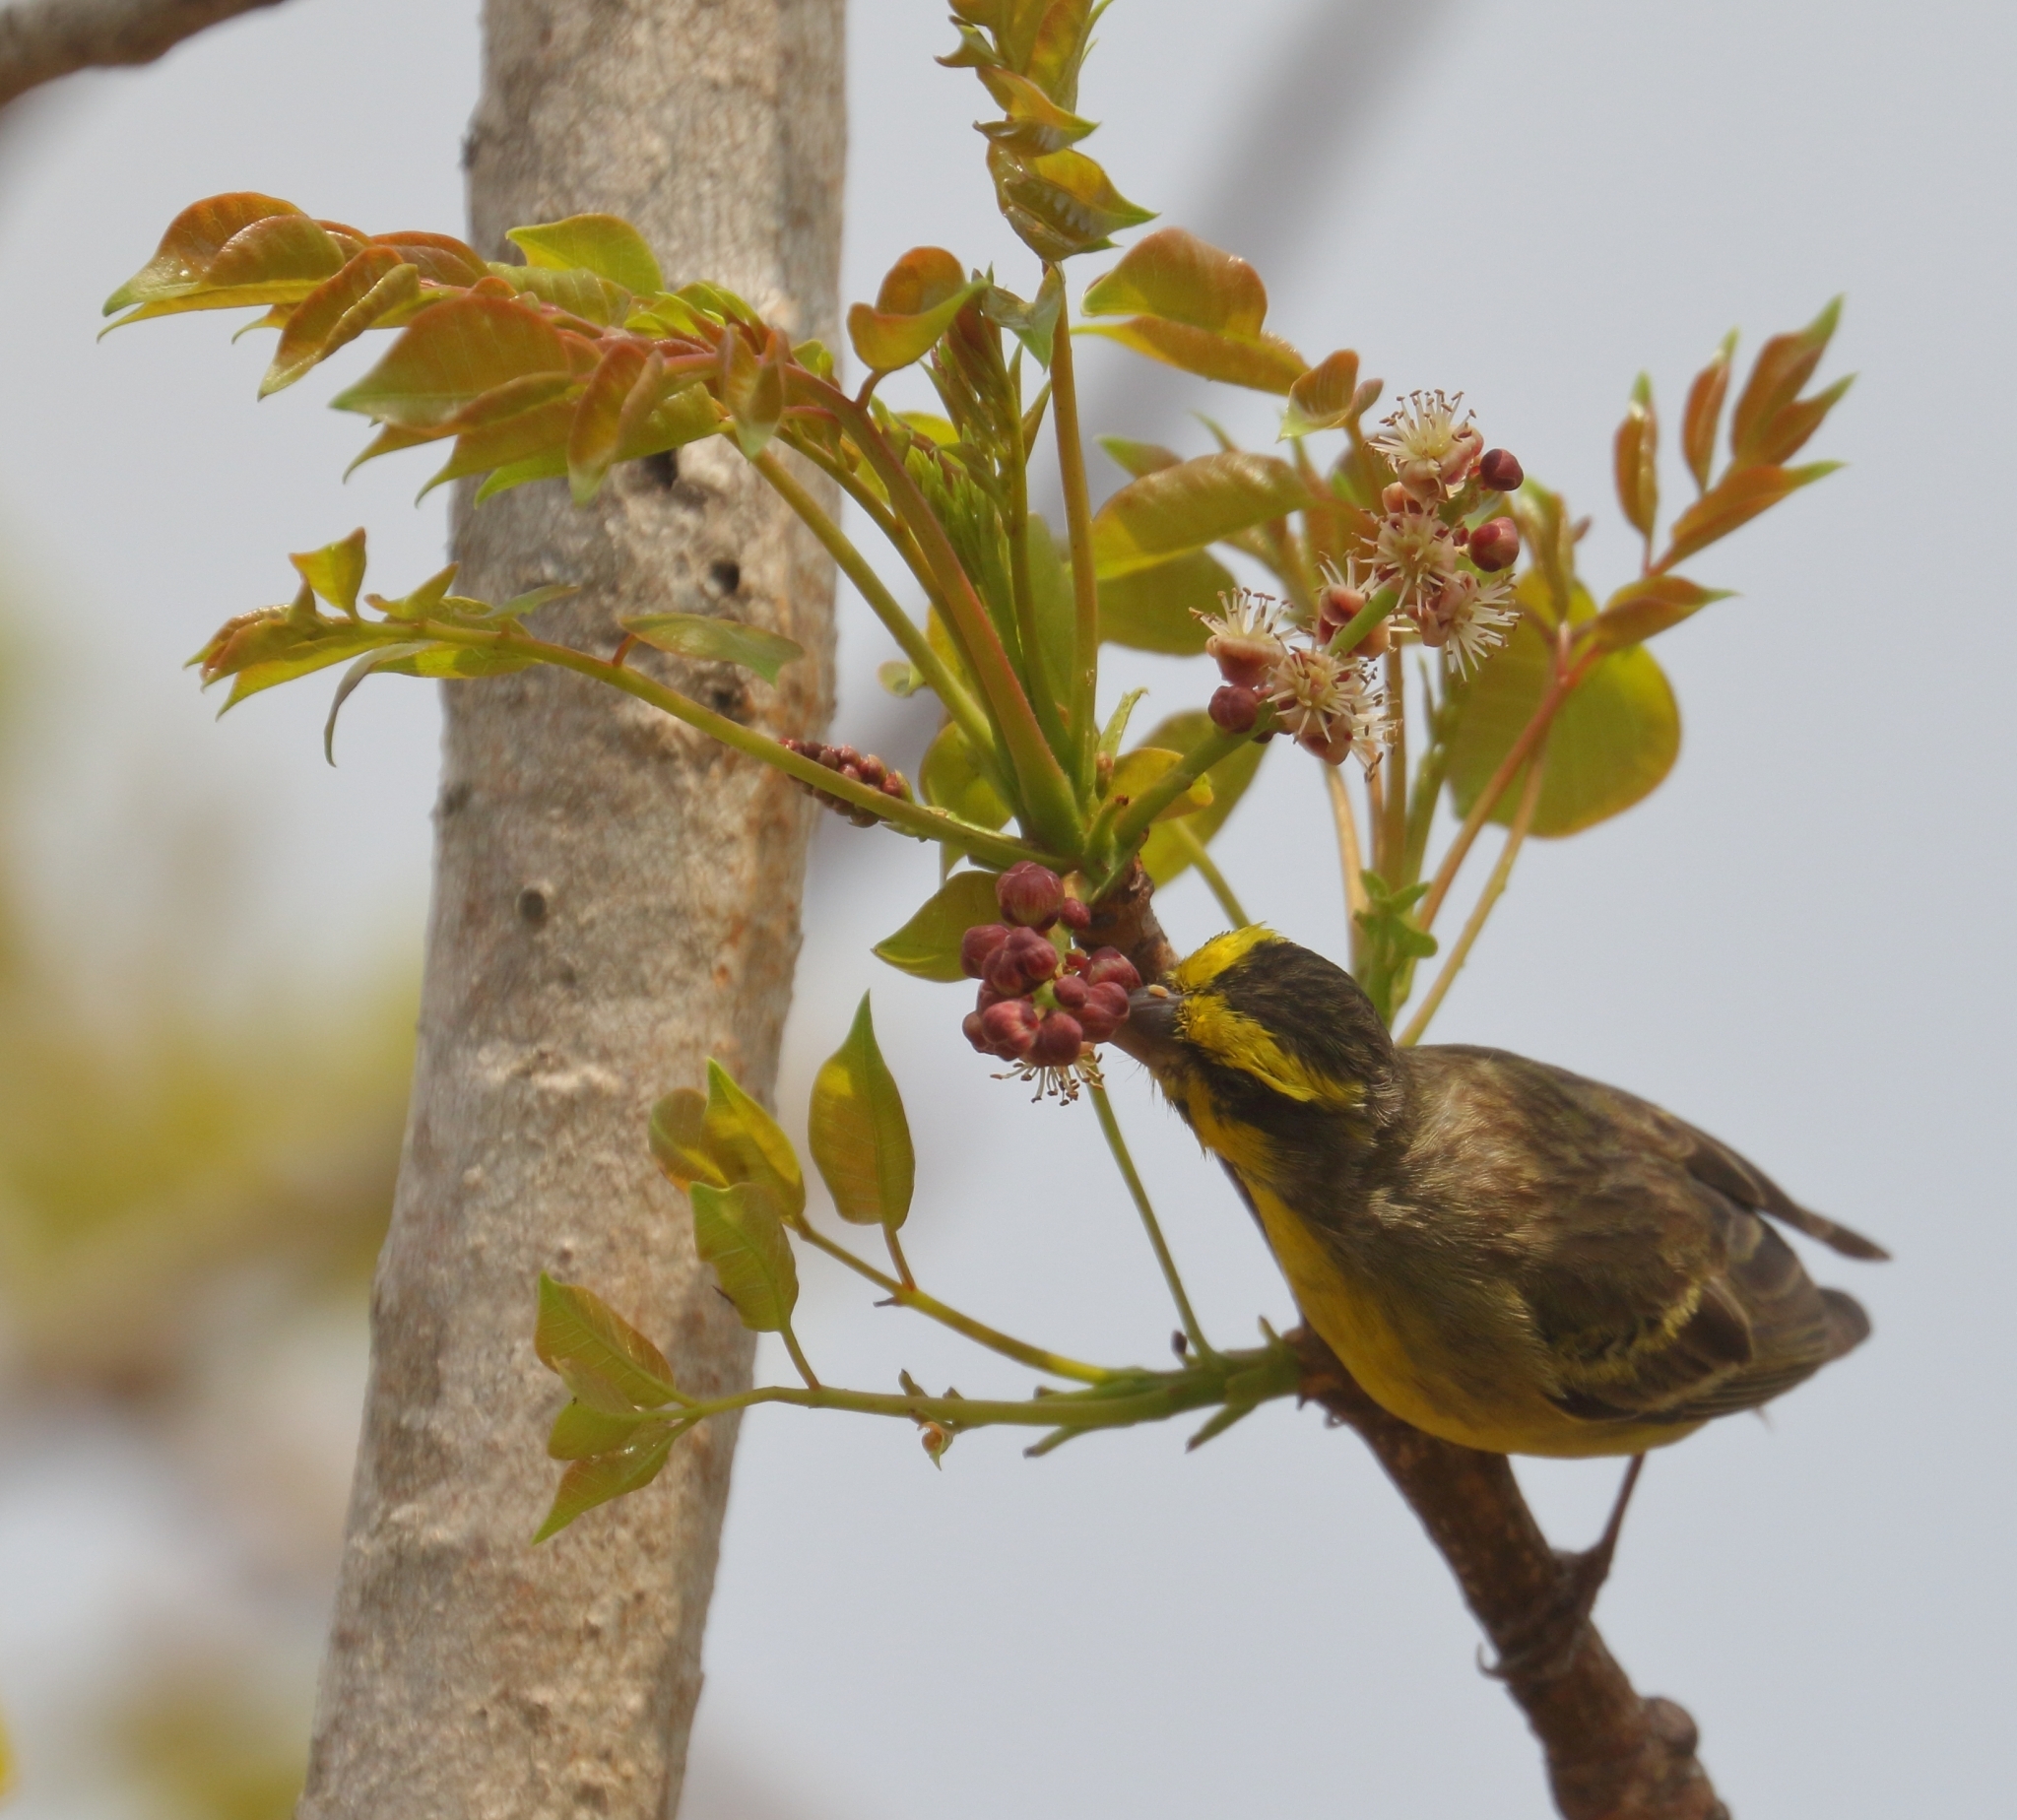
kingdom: Plantae
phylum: Tracheophyta
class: Magnoliopsida
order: Sapindales
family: Anacardiaceae
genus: Sclerocarya
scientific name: Sclerocarya birrea
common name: Marula
